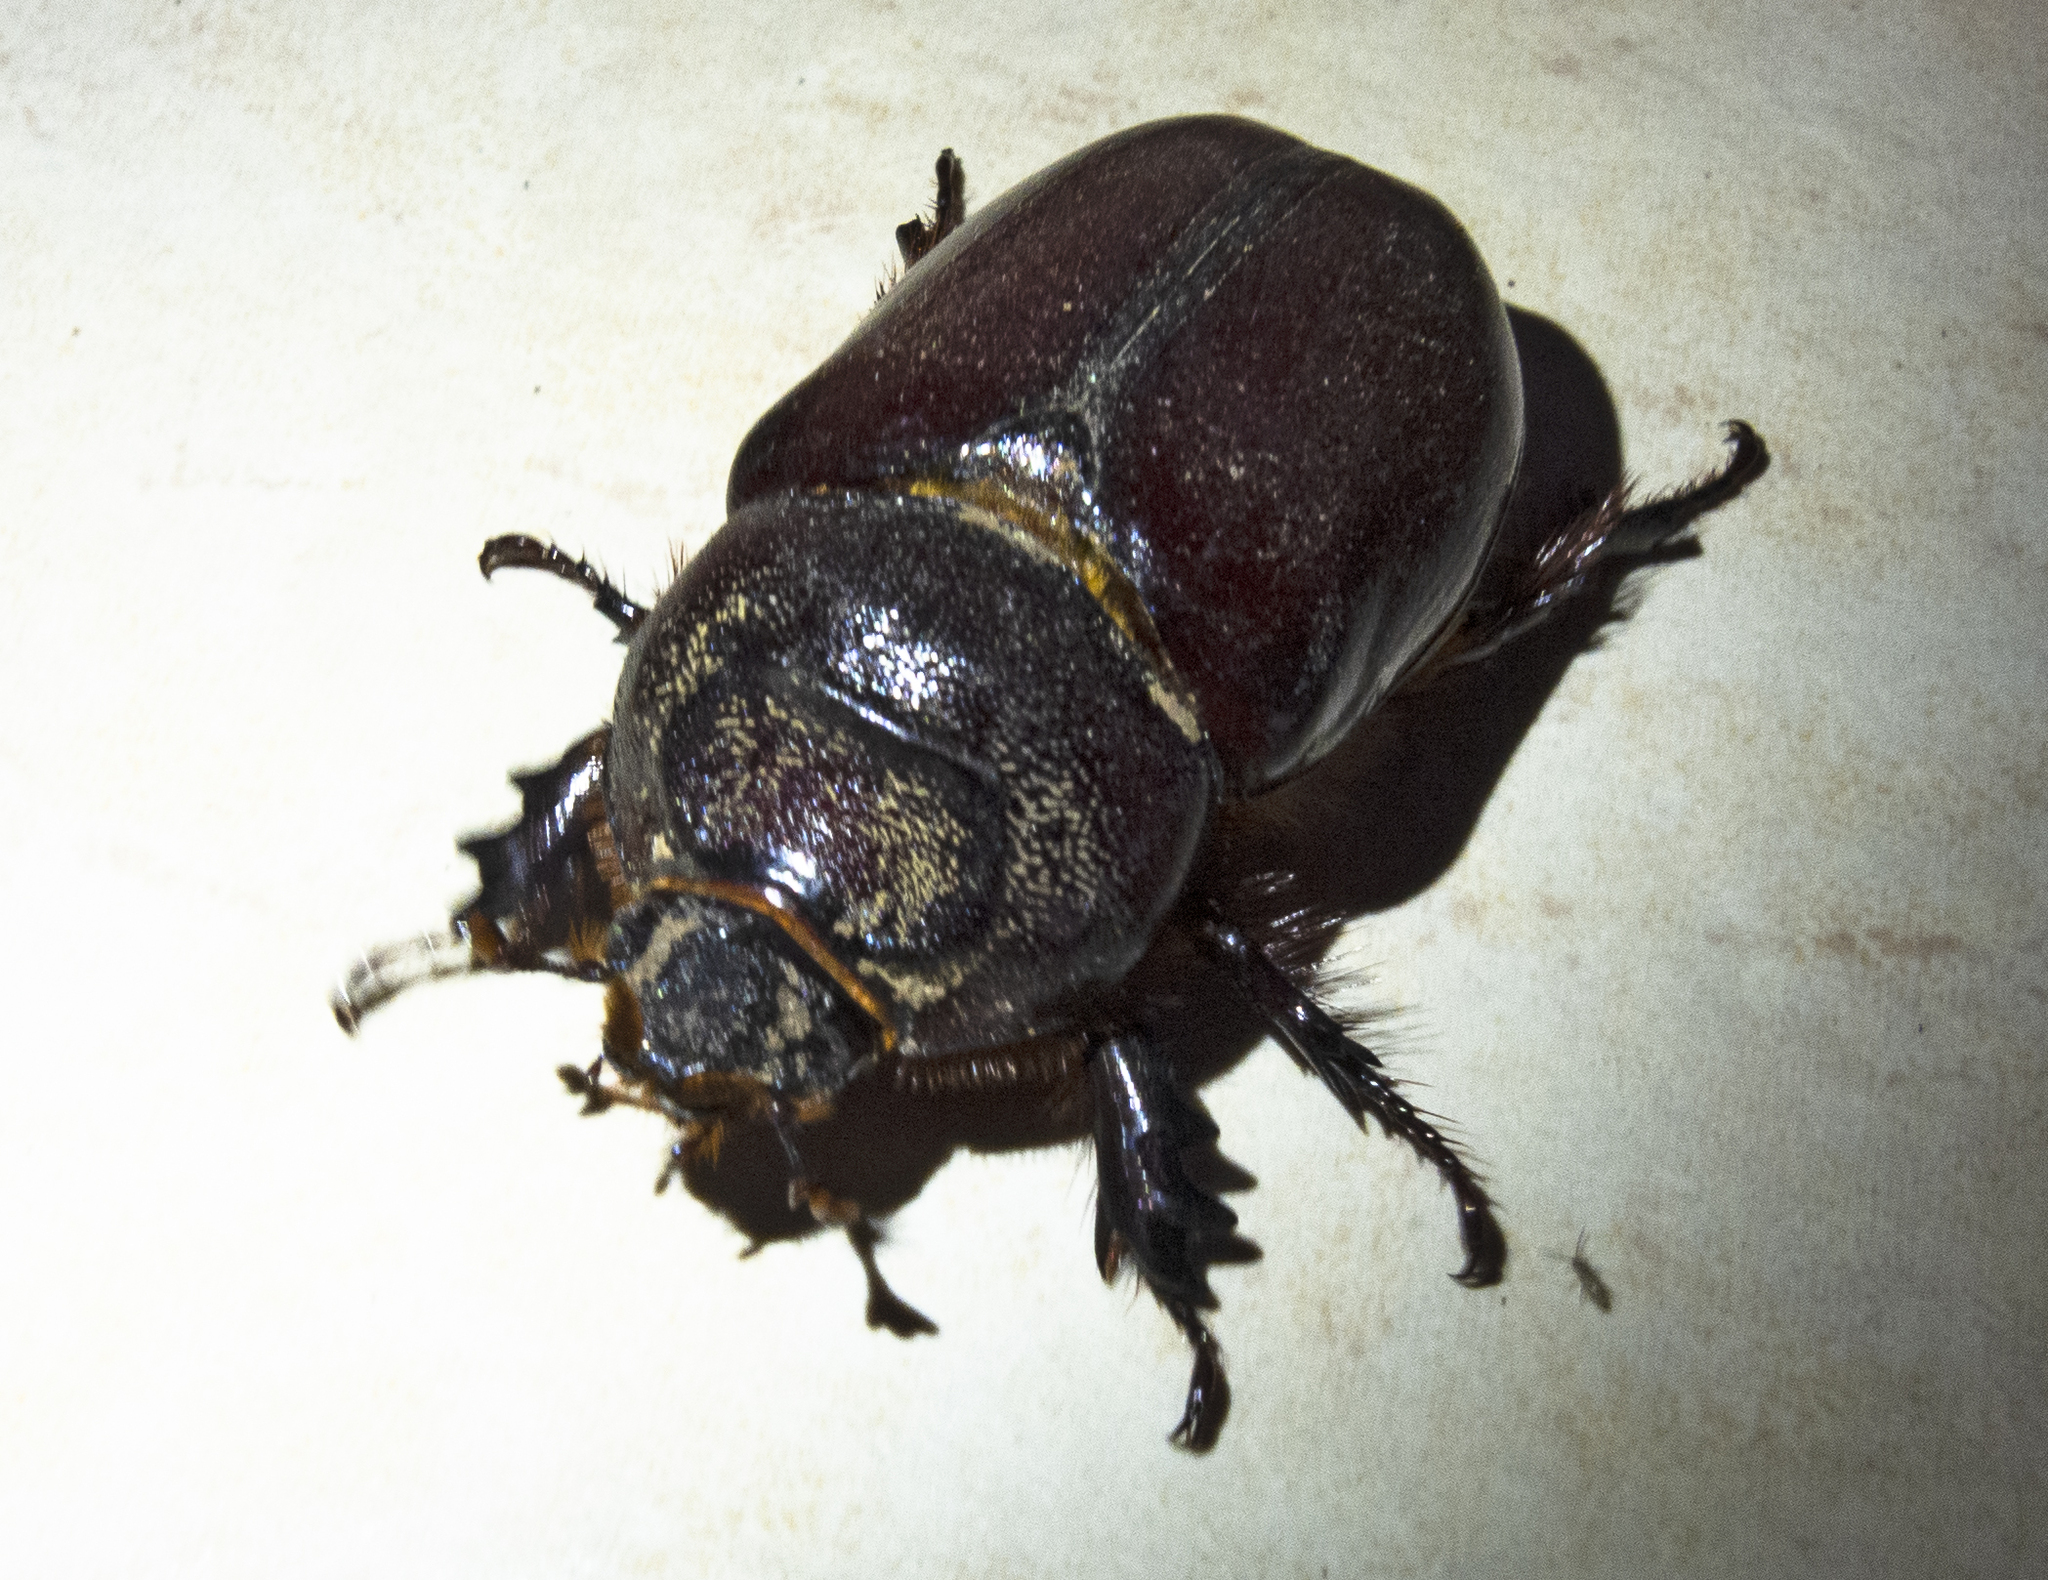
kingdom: Animalia
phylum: Arthropoda
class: Insecta
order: Coleoptera
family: Scarabaeidae
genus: Oryctes
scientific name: Oryctes nasicornis
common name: European rhinoceros beetle
